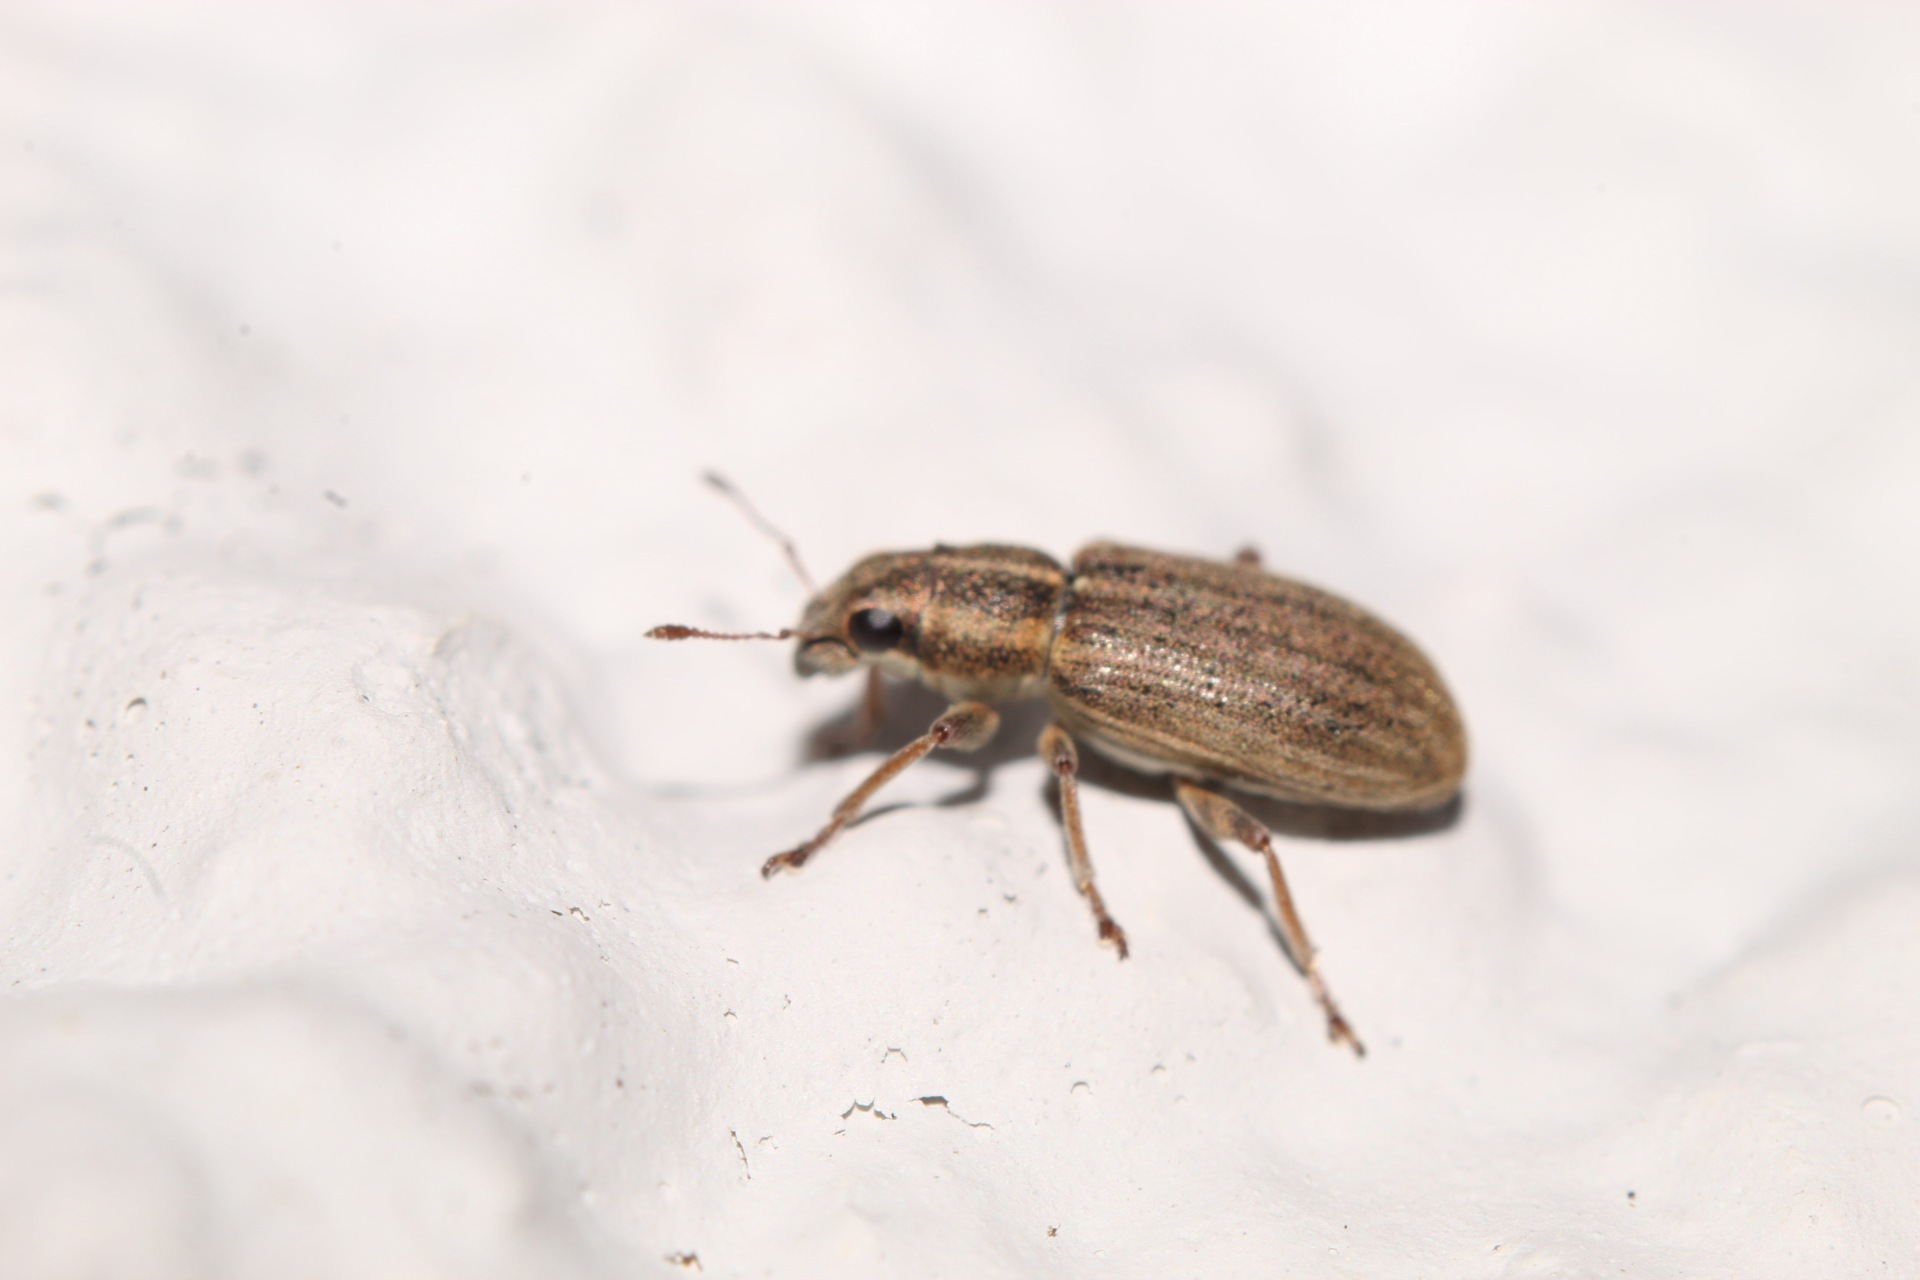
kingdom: Animalia
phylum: Arthropoda
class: Insecta
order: Coleoptera
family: Curculionidae
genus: Sitona
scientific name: Sitona lineatus
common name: Weevil
